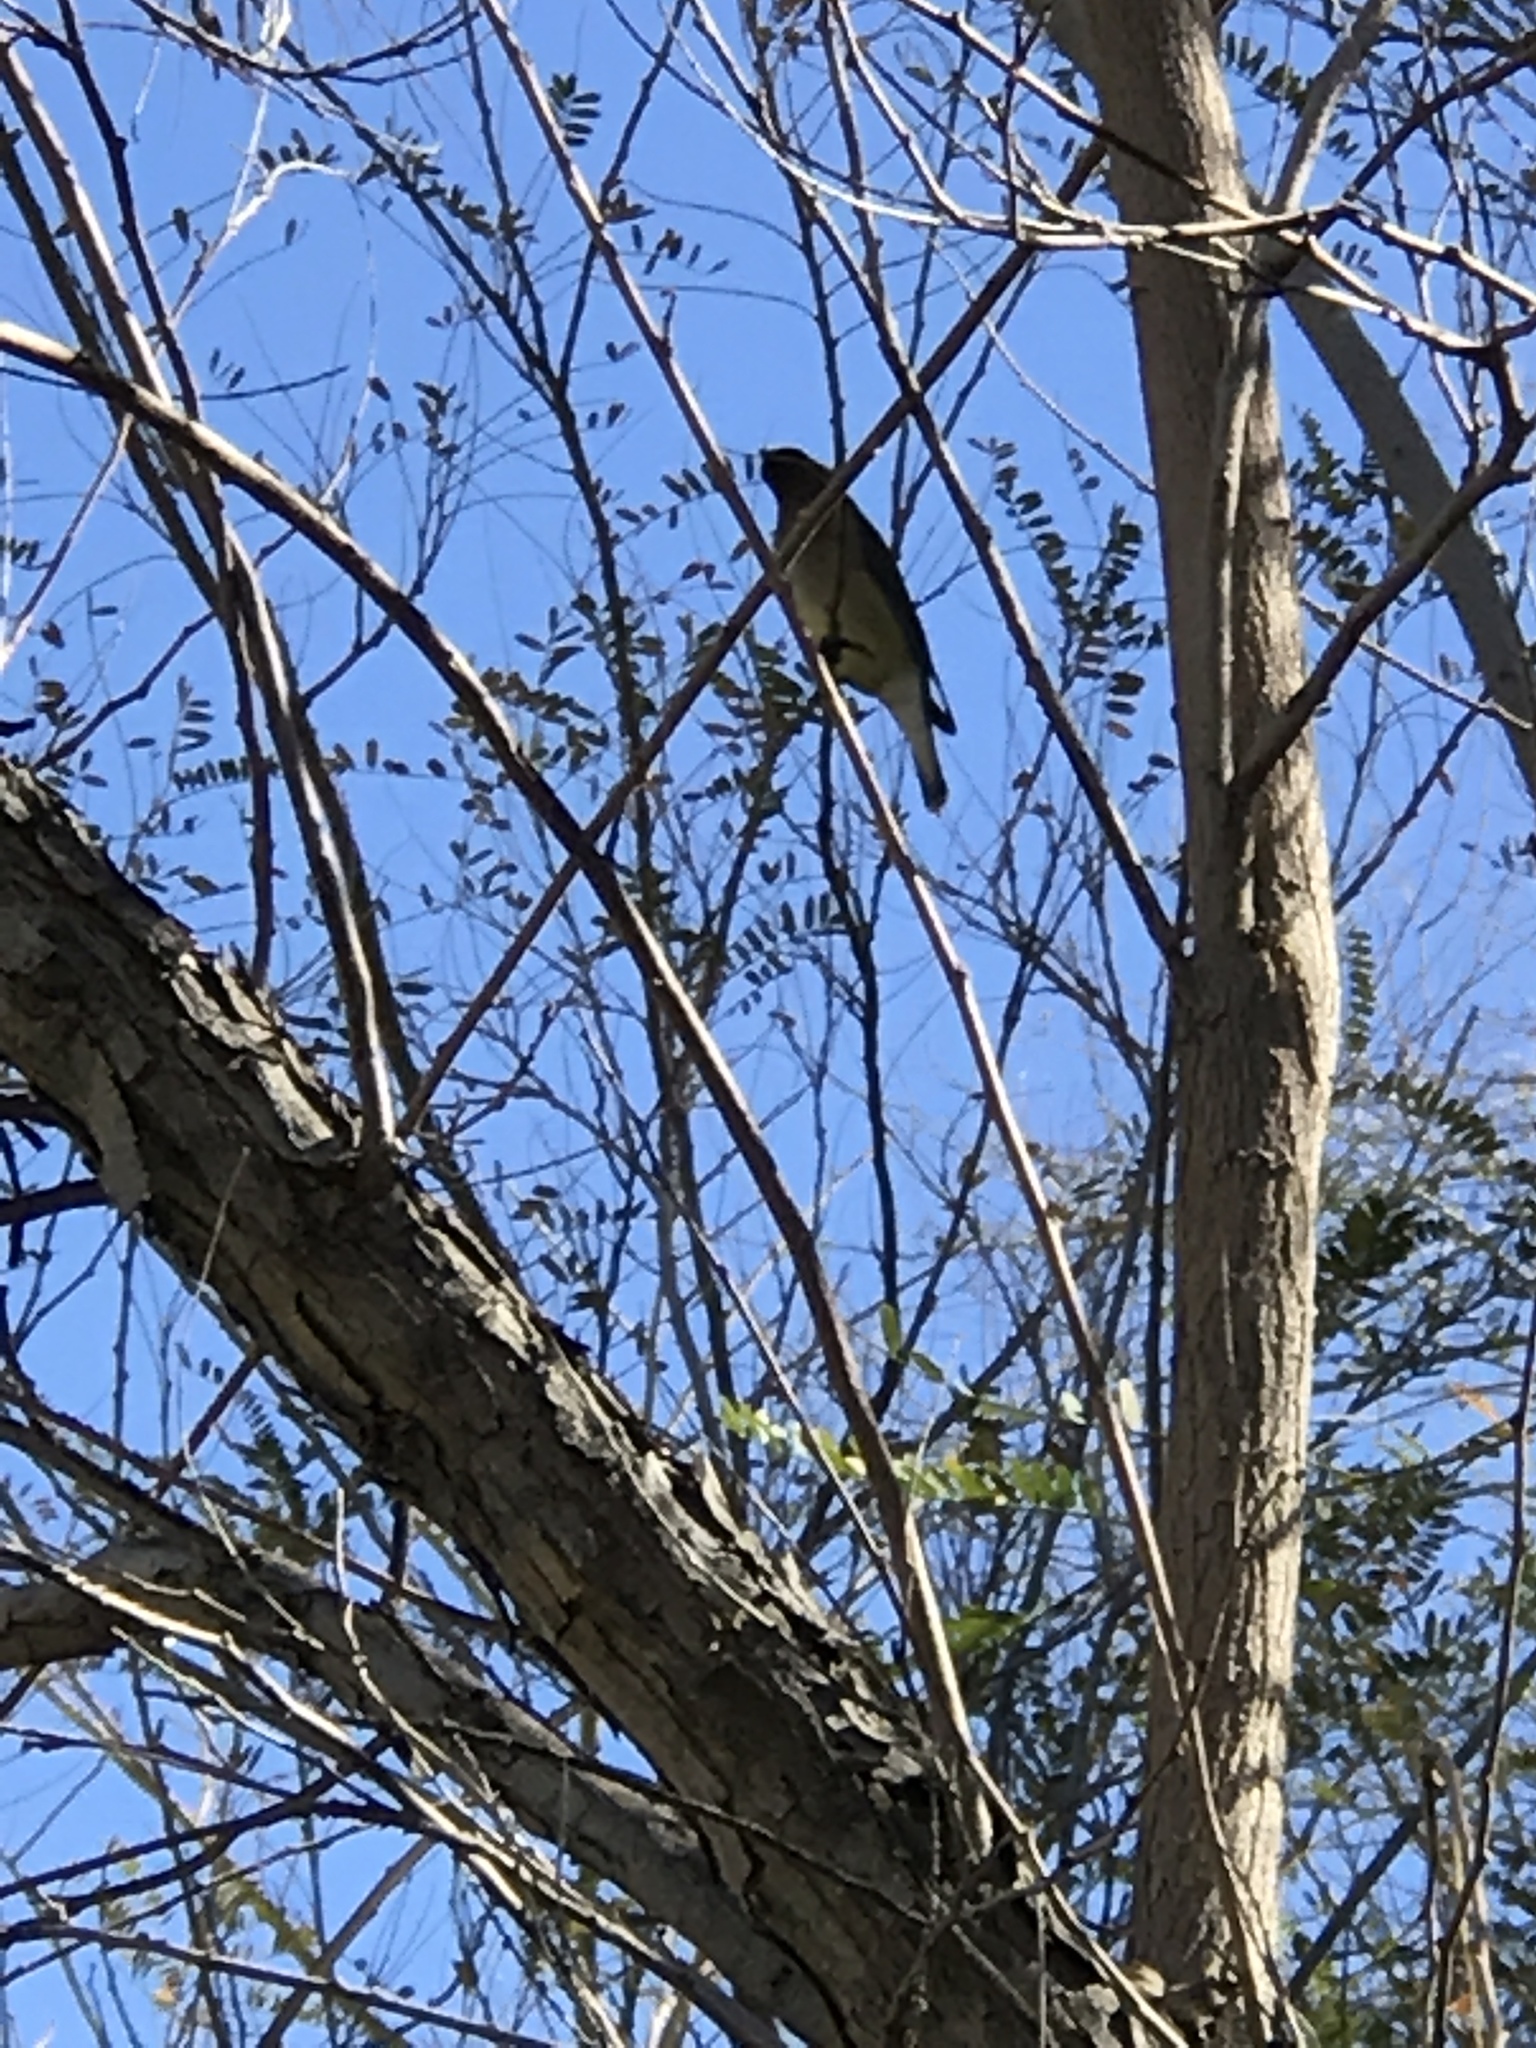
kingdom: Animalia
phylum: Chordata
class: Aves
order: Passeriformes
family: Bombycillidae
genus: Bombycilla
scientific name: Bombycilla cedrorum
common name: Cedar waxwing
